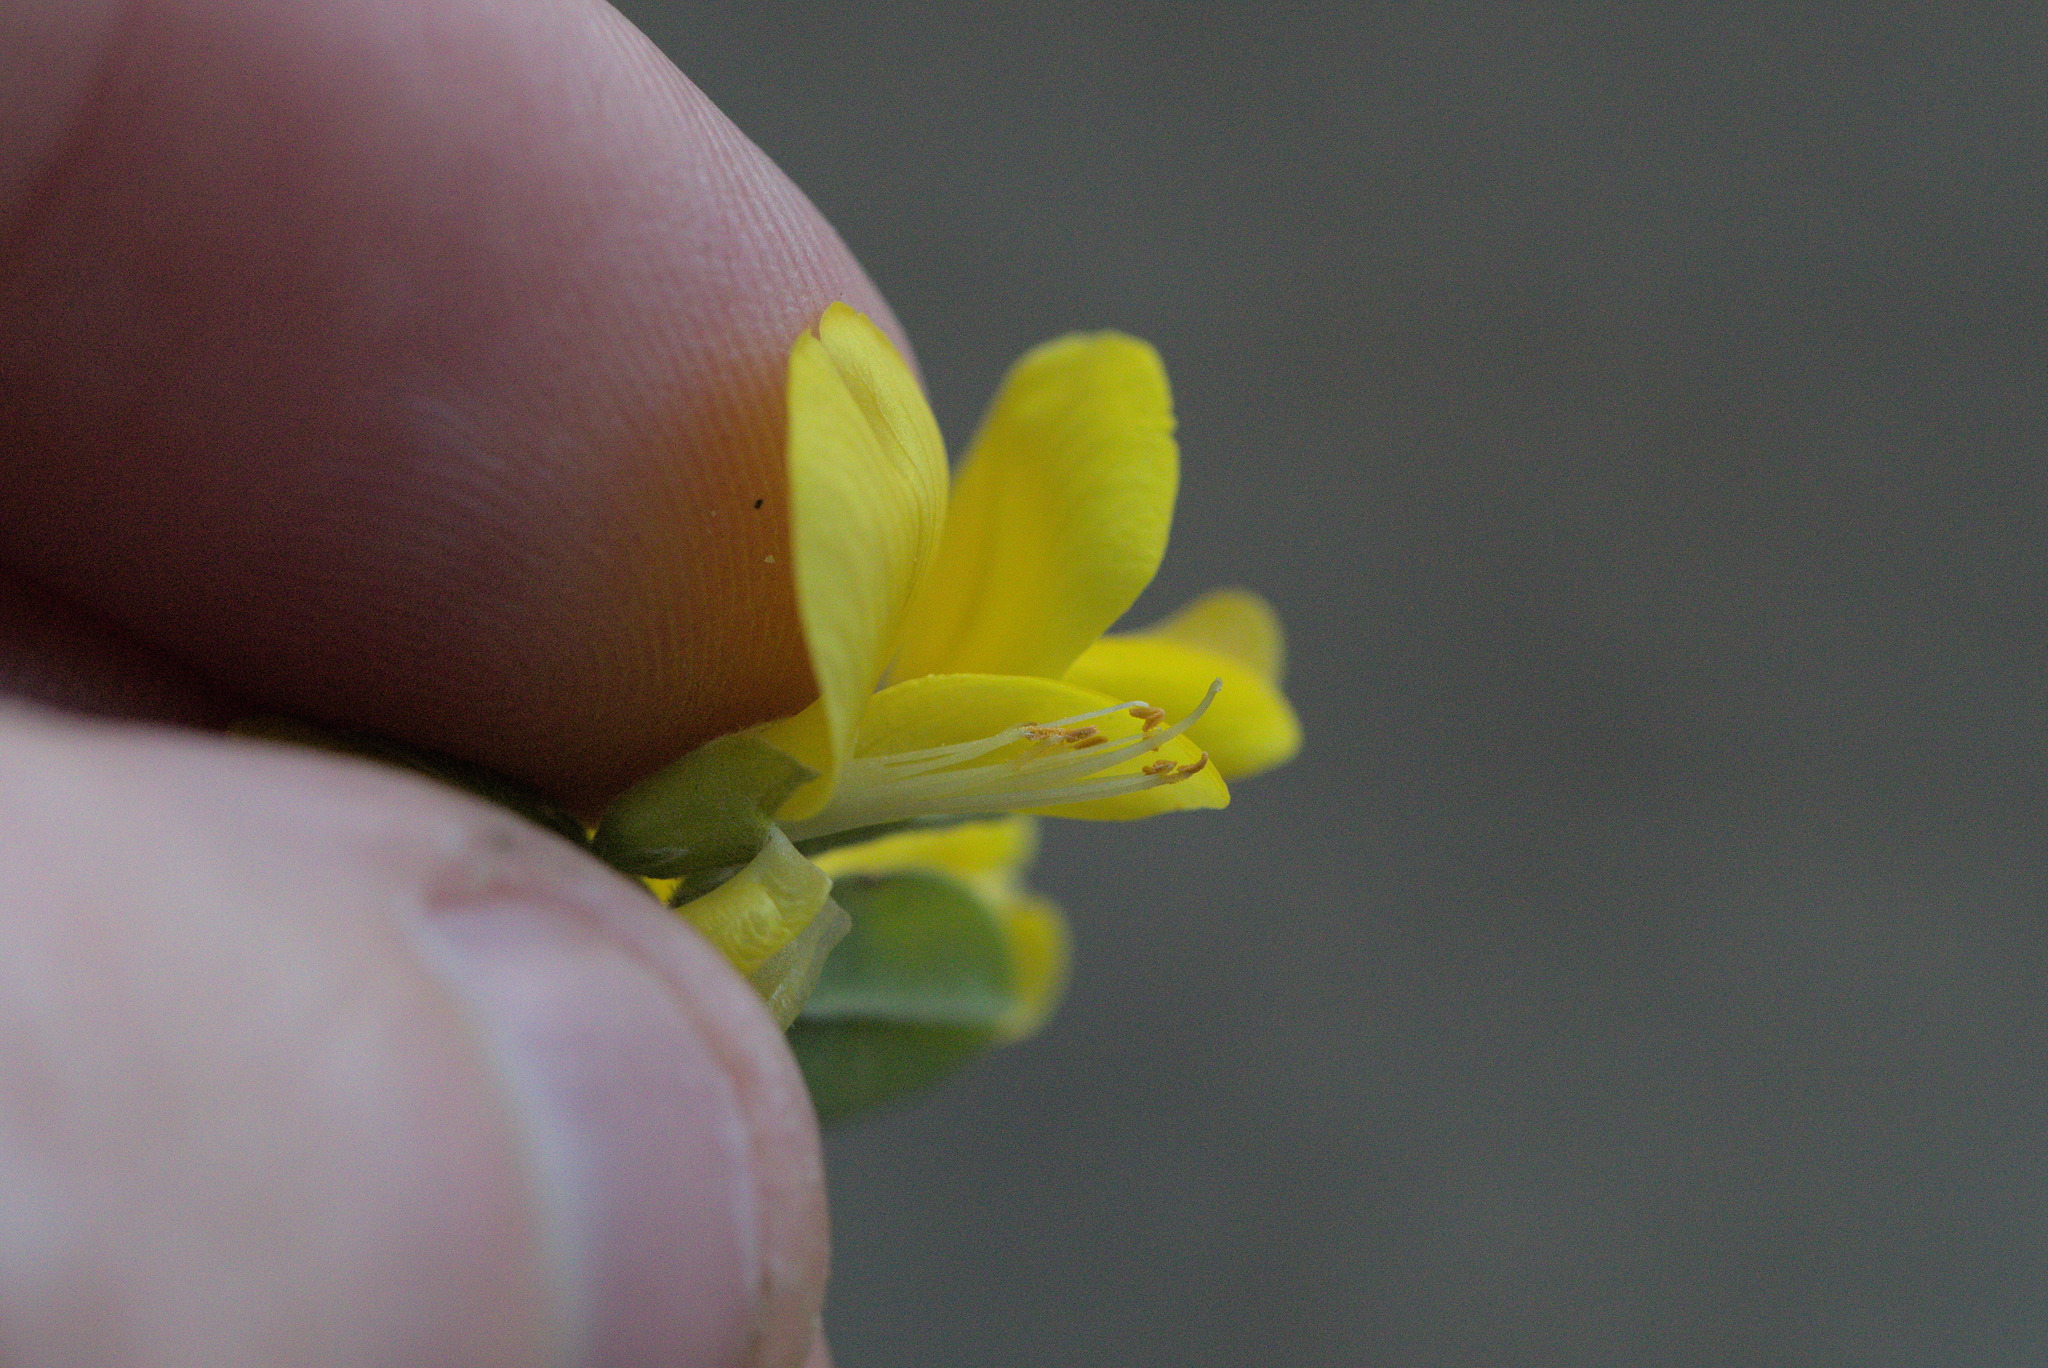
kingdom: Plantae
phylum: Tracheophyta
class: Magnoliopsida
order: Fabales
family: Fabaceae
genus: Genista
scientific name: Genista monspessulana
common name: Montpellier broom
